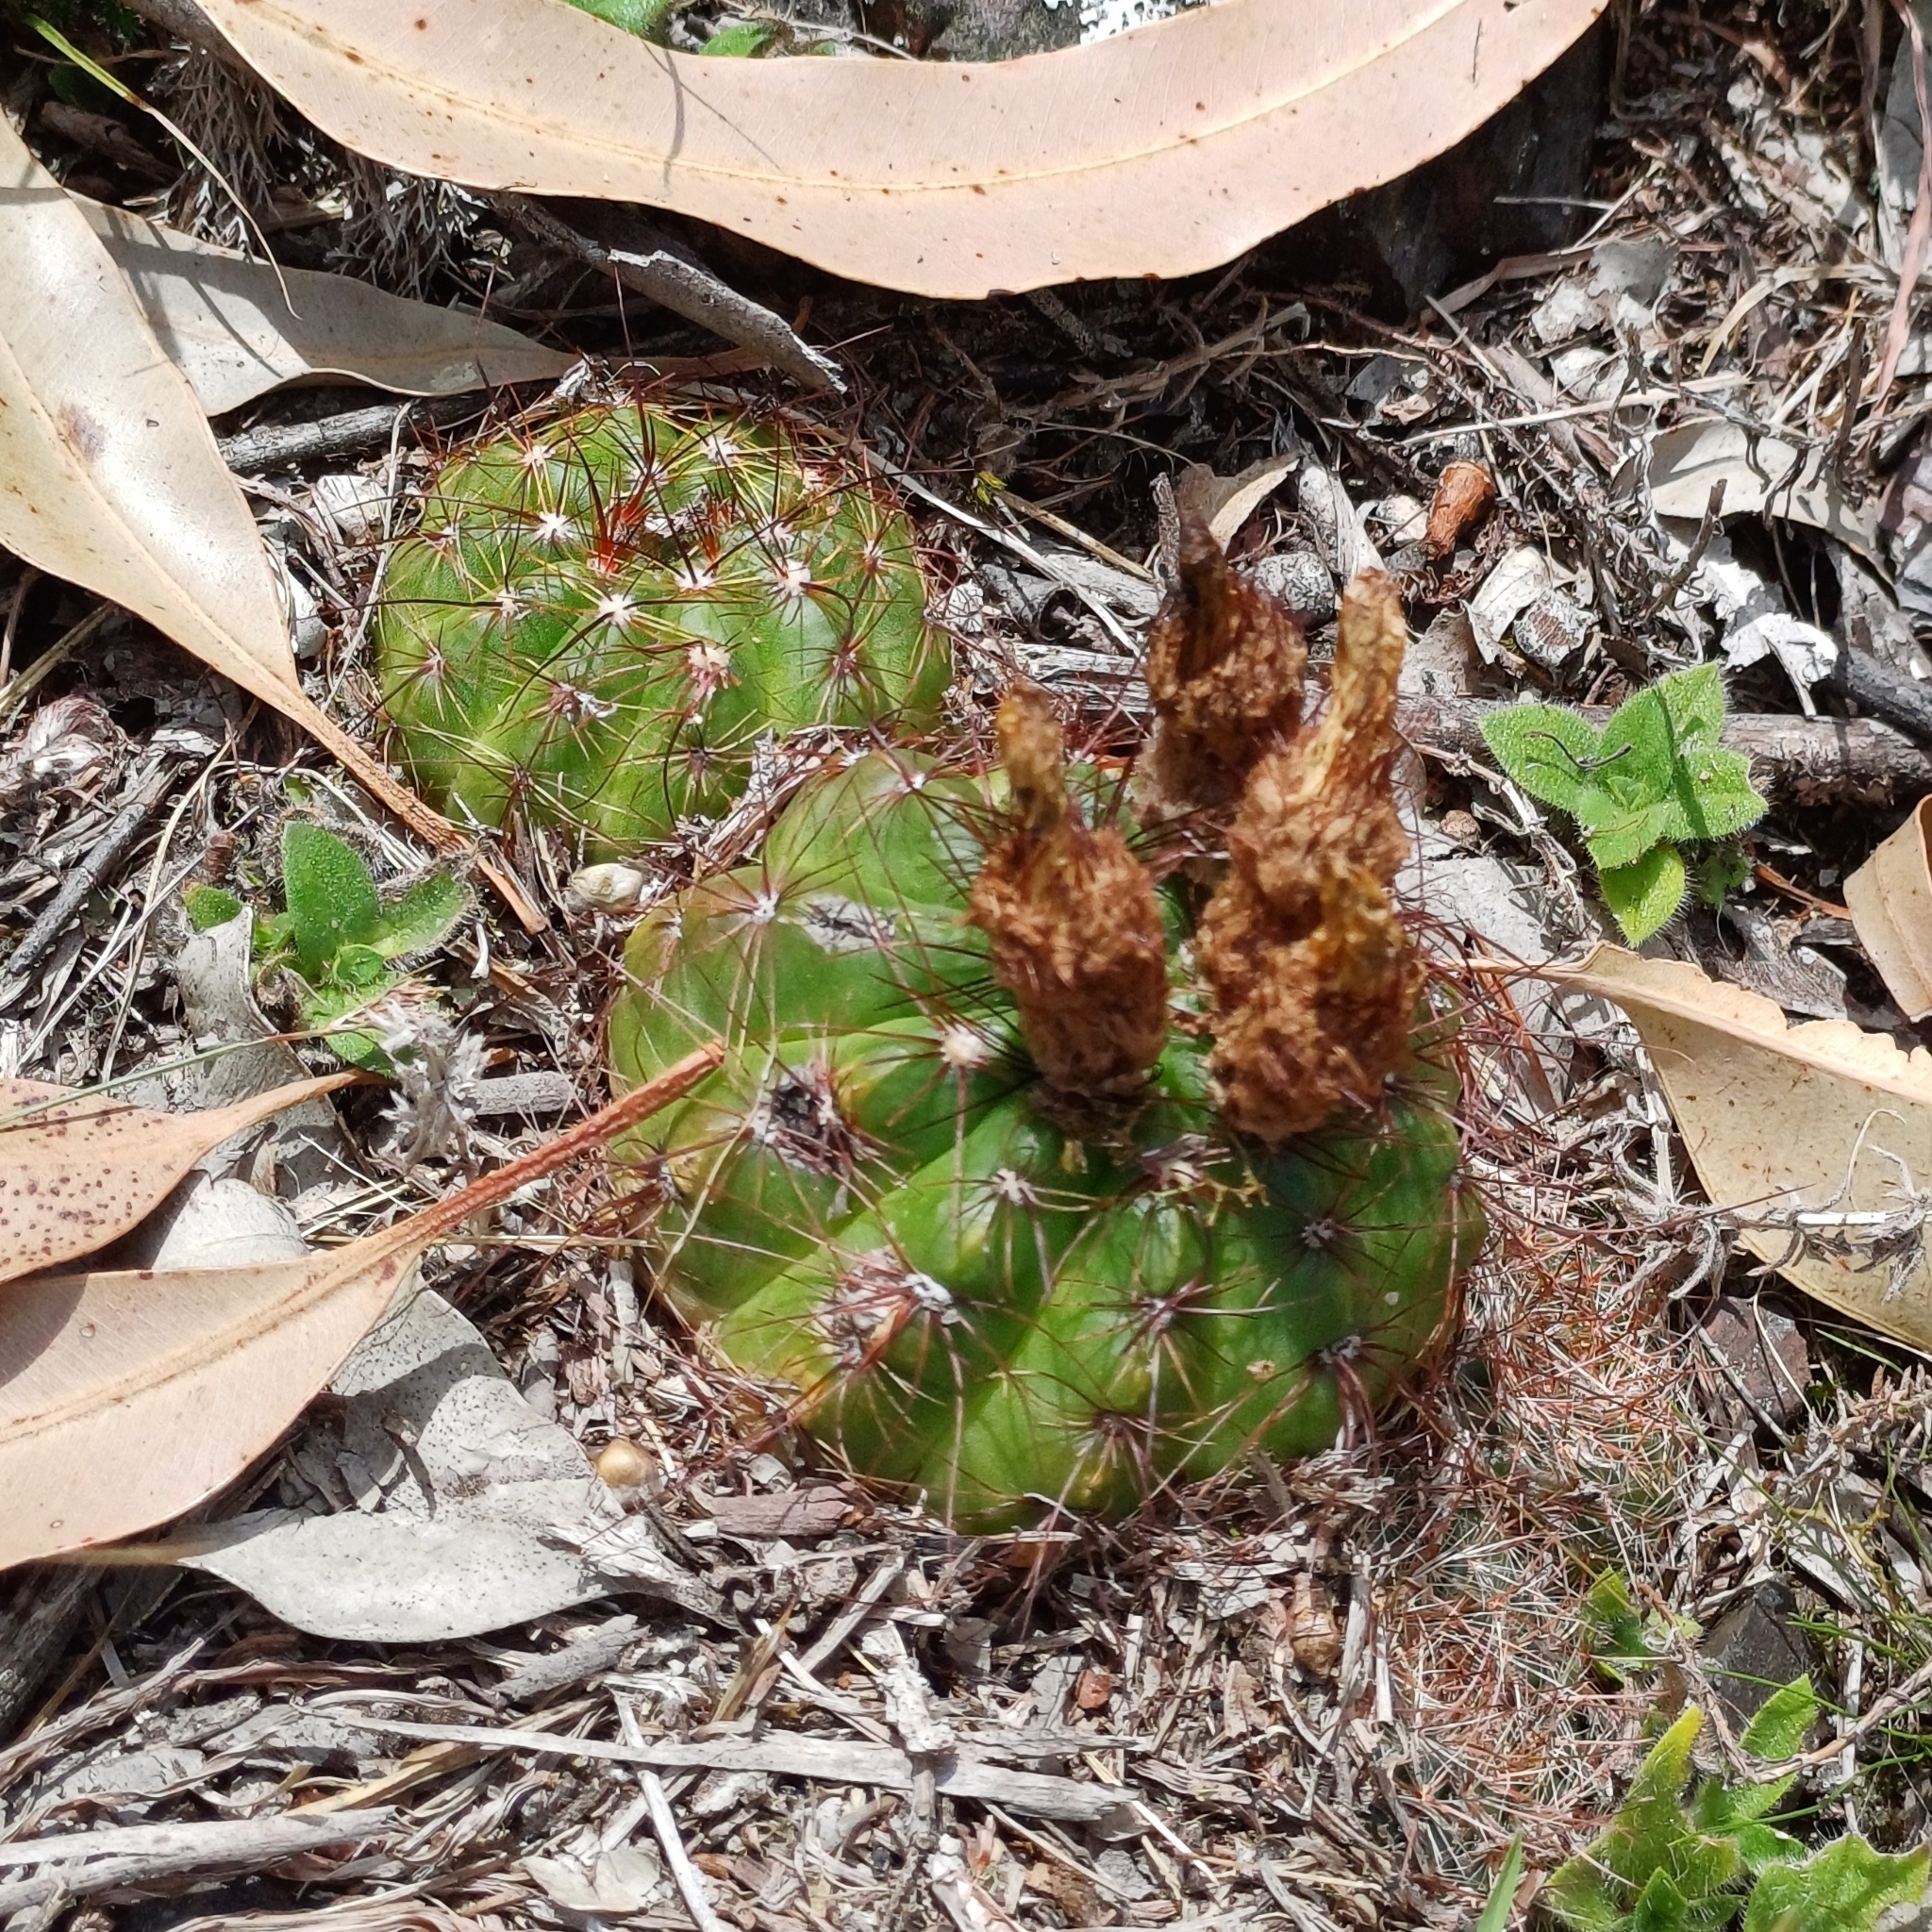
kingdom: Plantae
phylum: Tracheophyta
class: Magnoliopsida
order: Caryophyllales
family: Cactaceae
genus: Parodia
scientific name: Parodia ottonis
